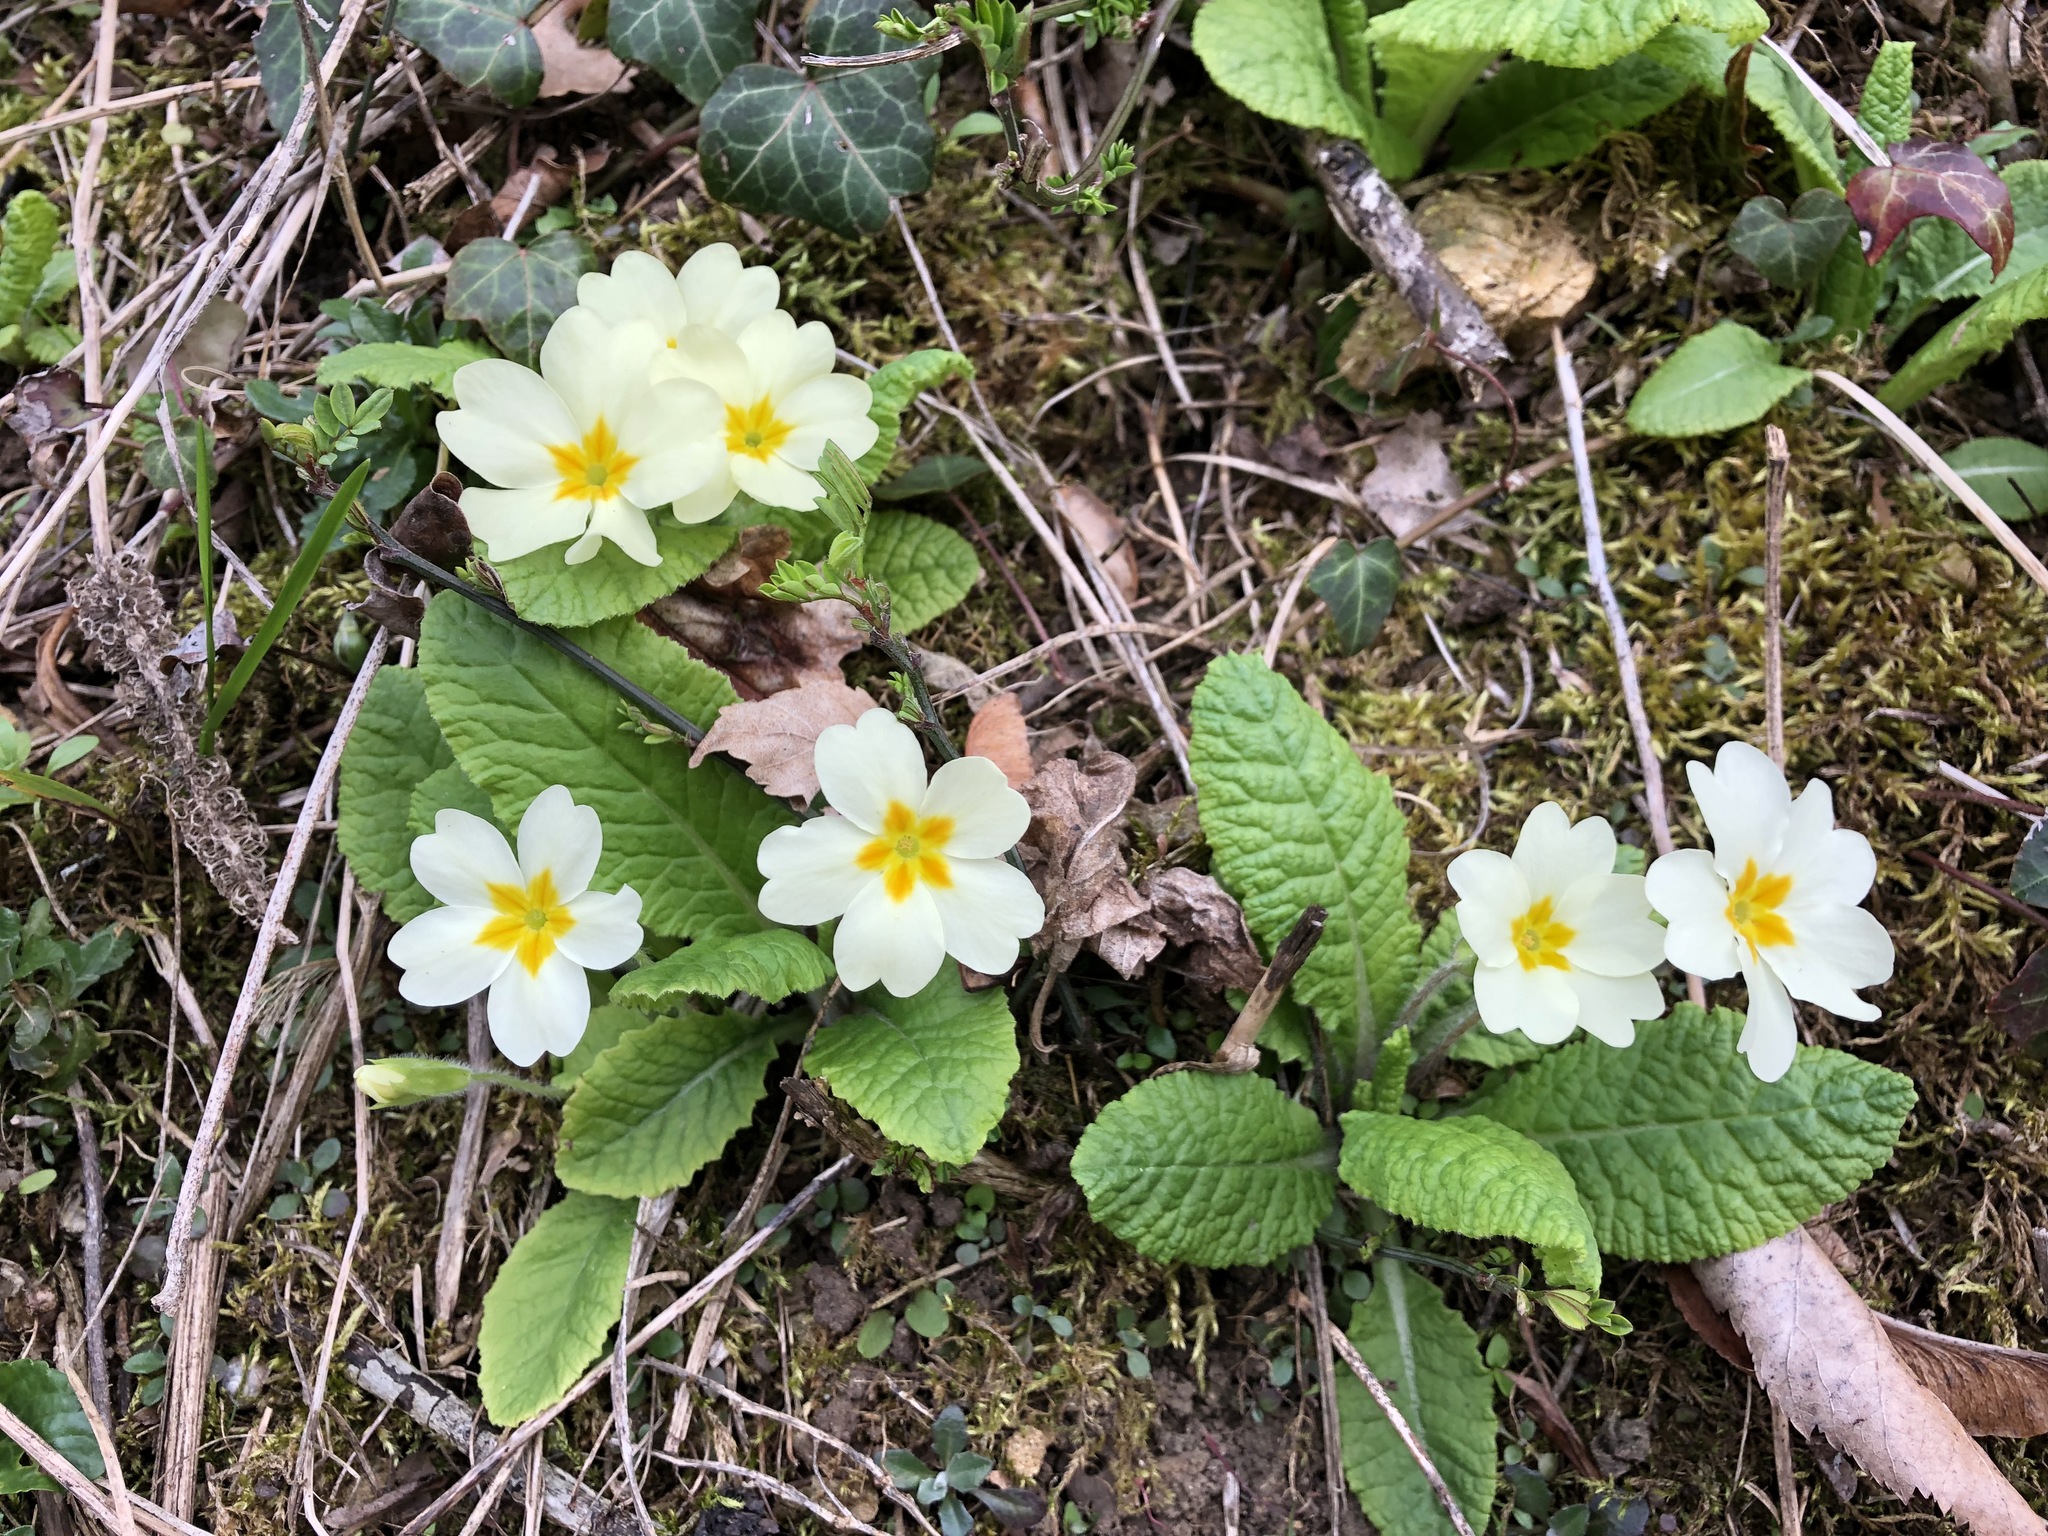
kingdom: Plantae
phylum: Tracheophyta
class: Magnoliopsida
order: Ericales
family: Primulaceae
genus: Primula
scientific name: Primula vulgaris
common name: Primrose
